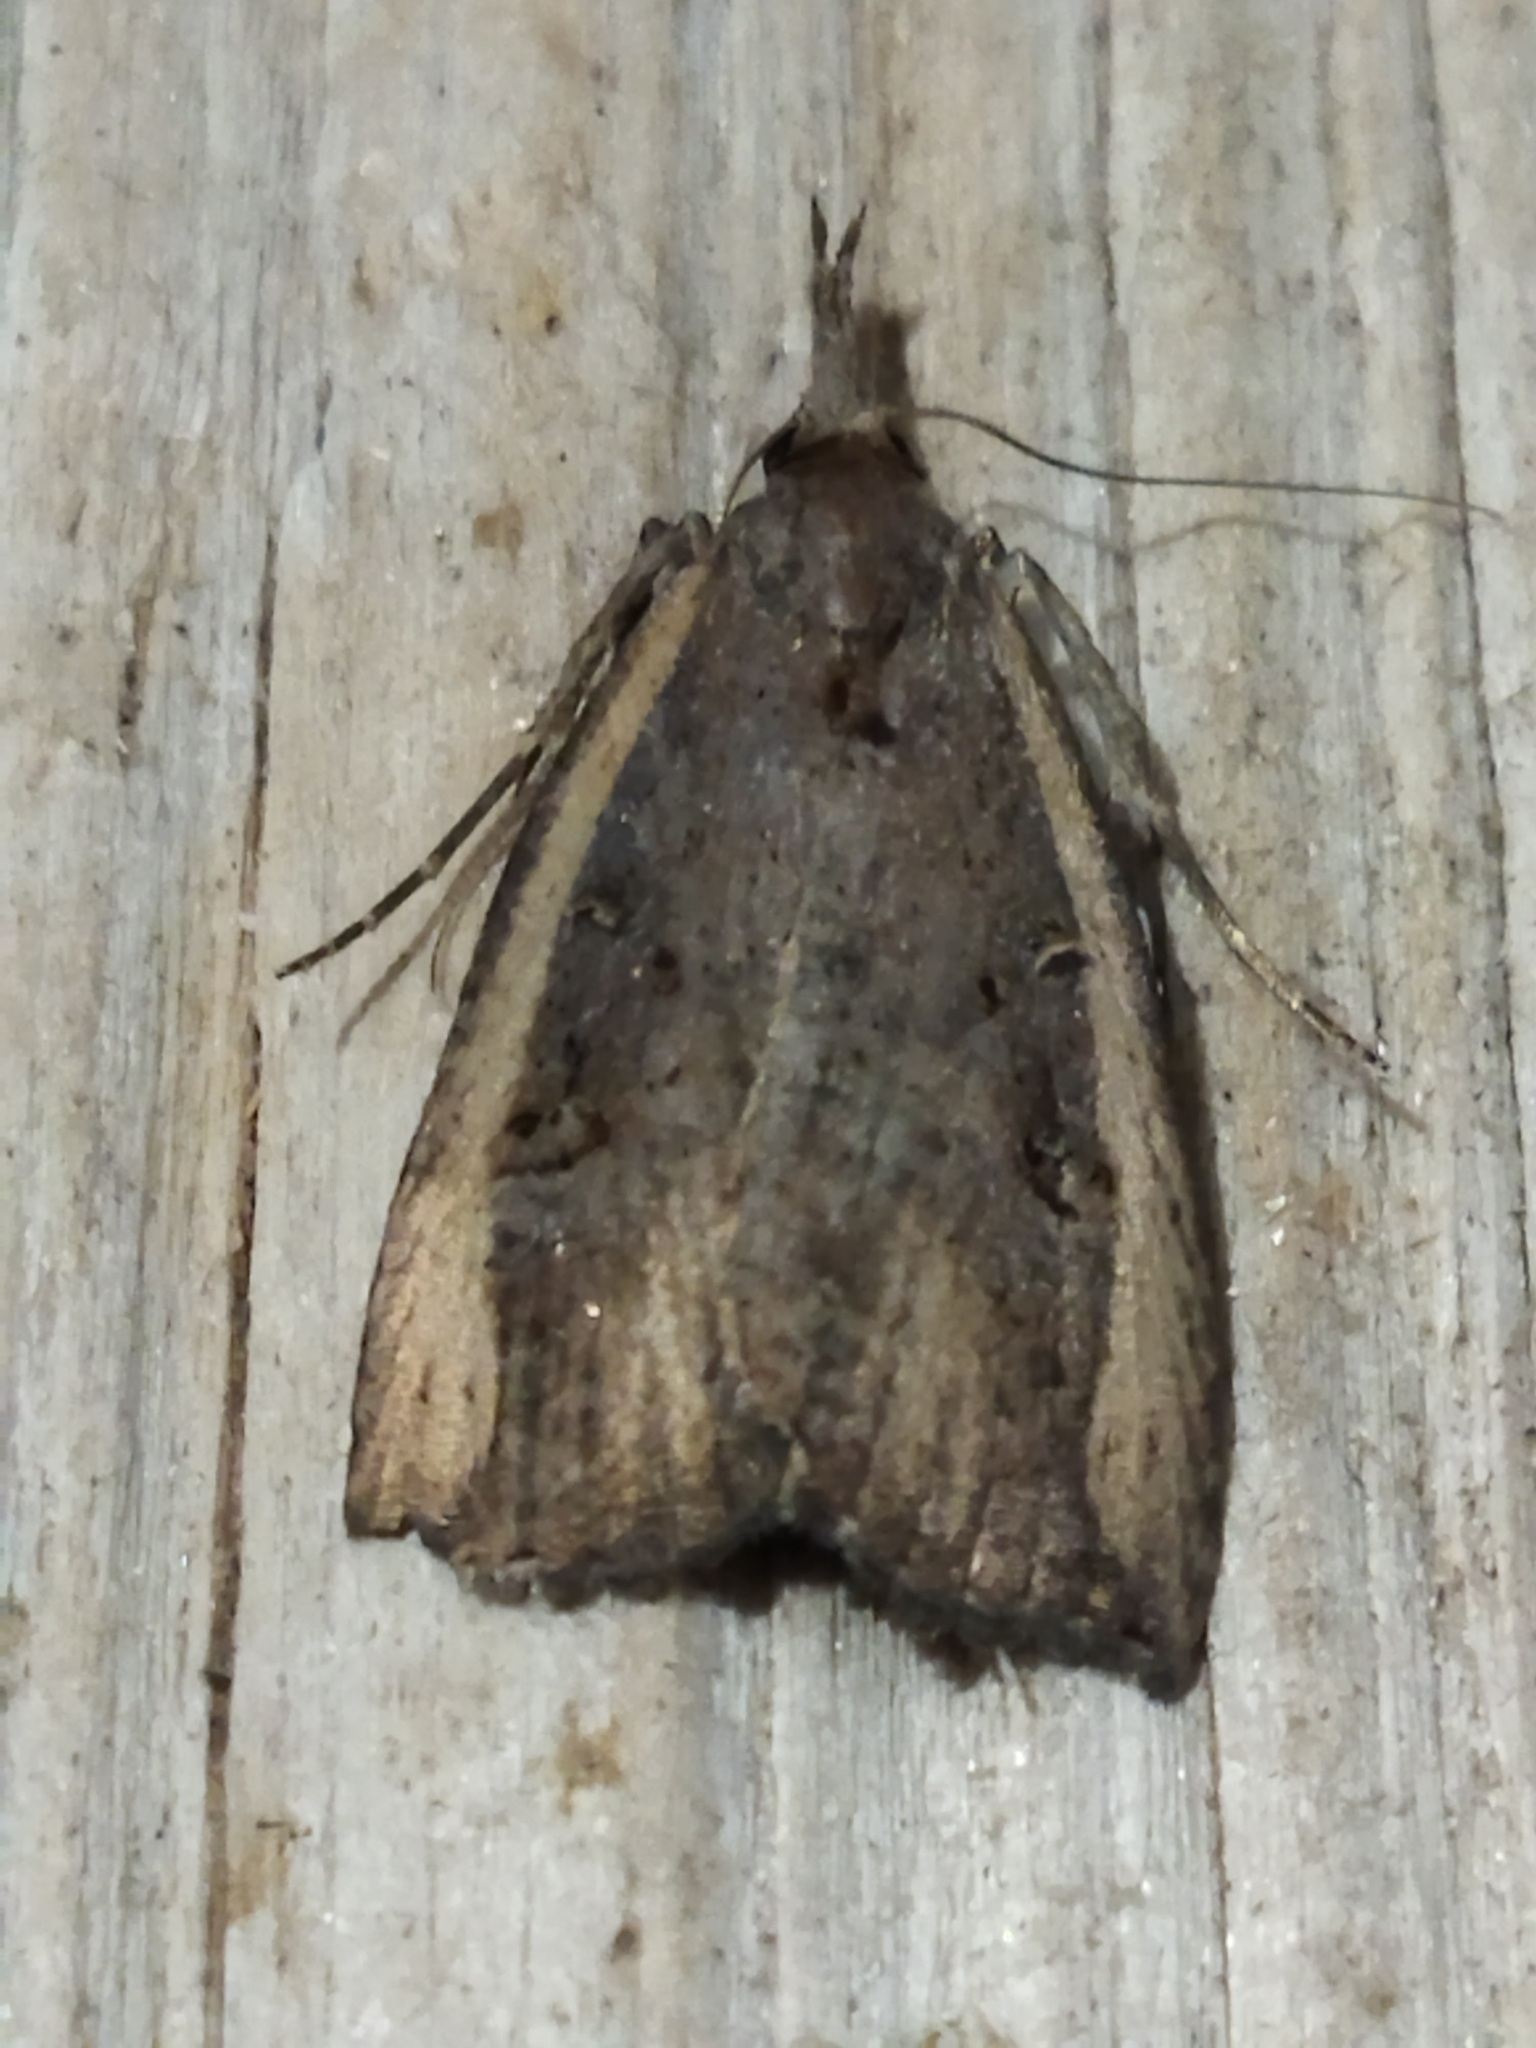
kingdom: Animalia
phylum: Arthropoda
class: Insecta
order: Lepidoptera
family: Erebidae
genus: Hypena
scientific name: Hypena rostralis
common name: Buttoned snout
